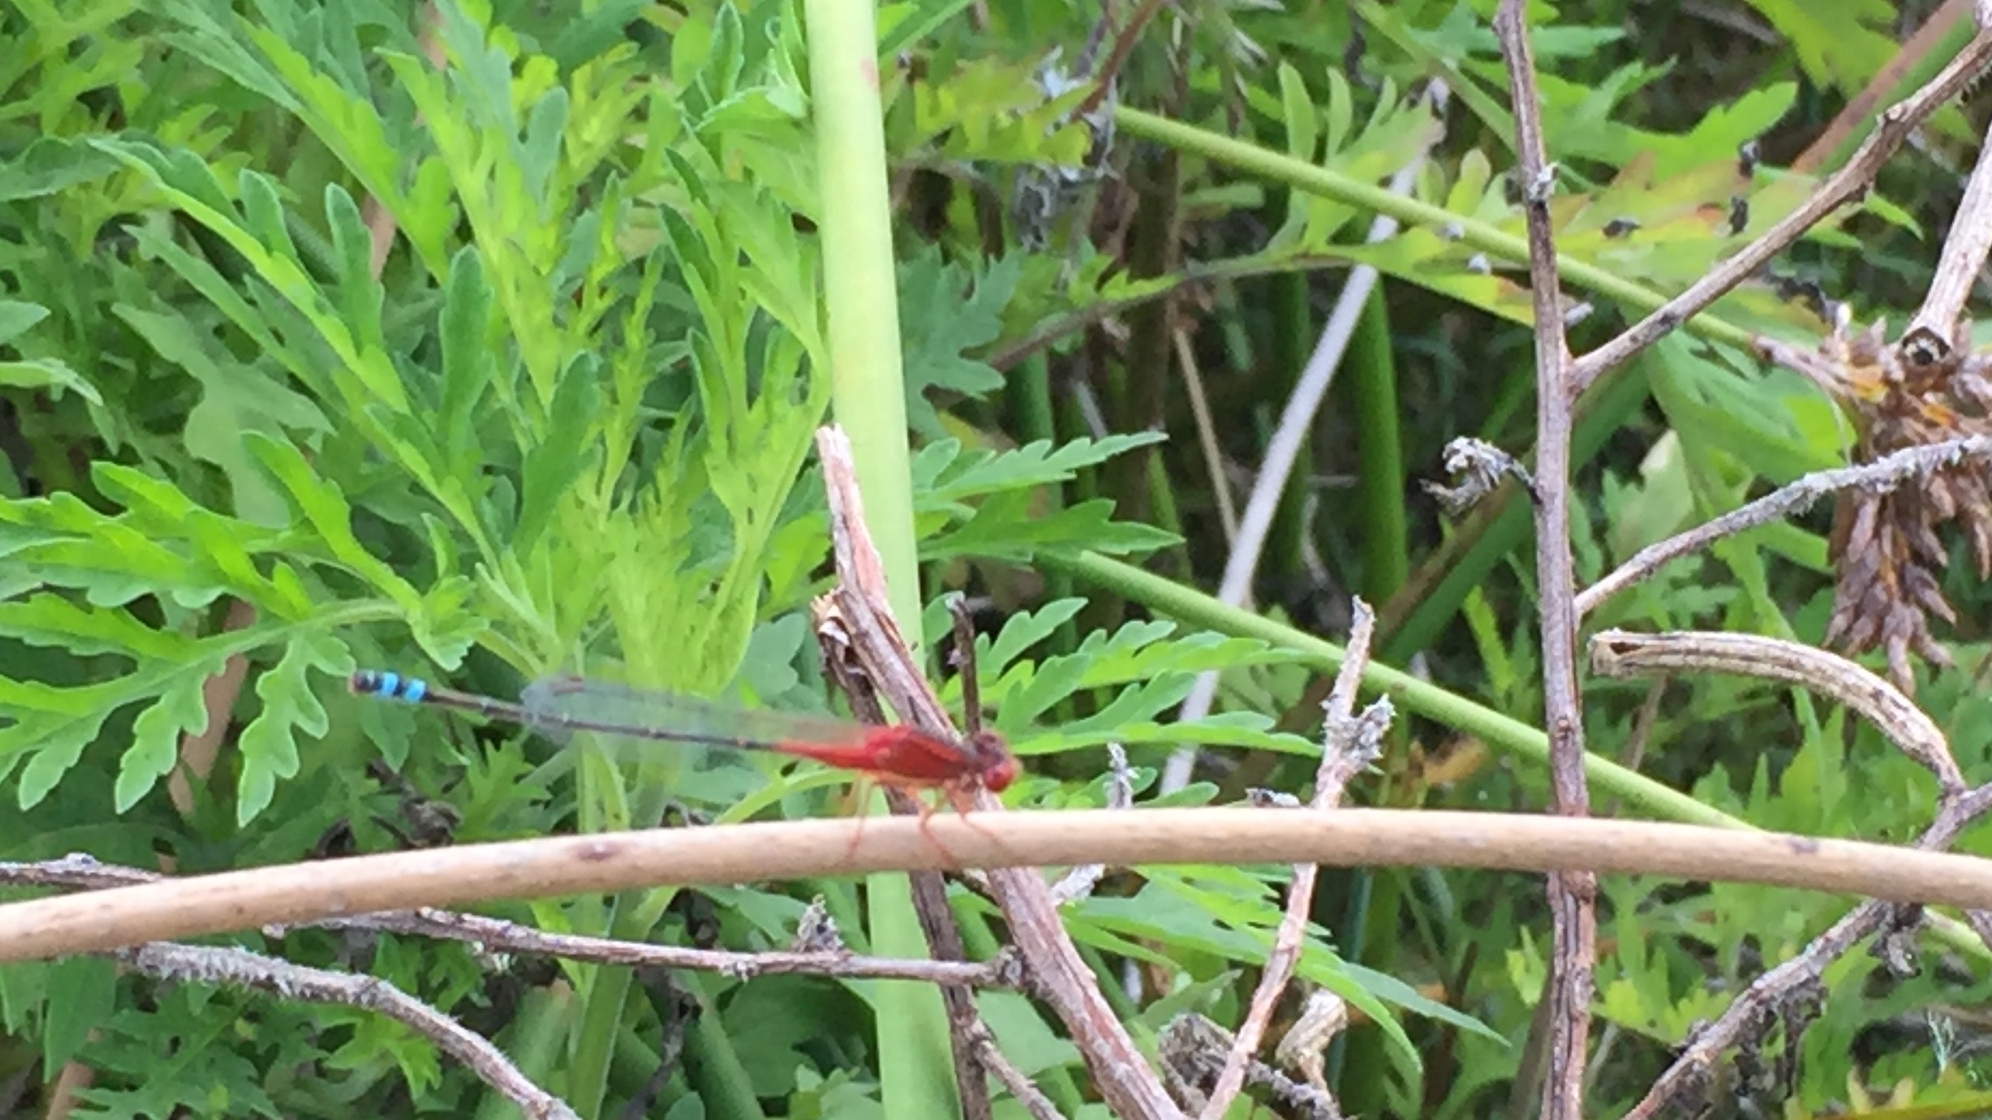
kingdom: Animalia
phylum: Arthropoda
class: Insecta
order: Odonata
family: Coenagrionidae
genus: Xanthagrion
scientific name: Xanthagrion erythroneurum
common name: Red and blue damsel
